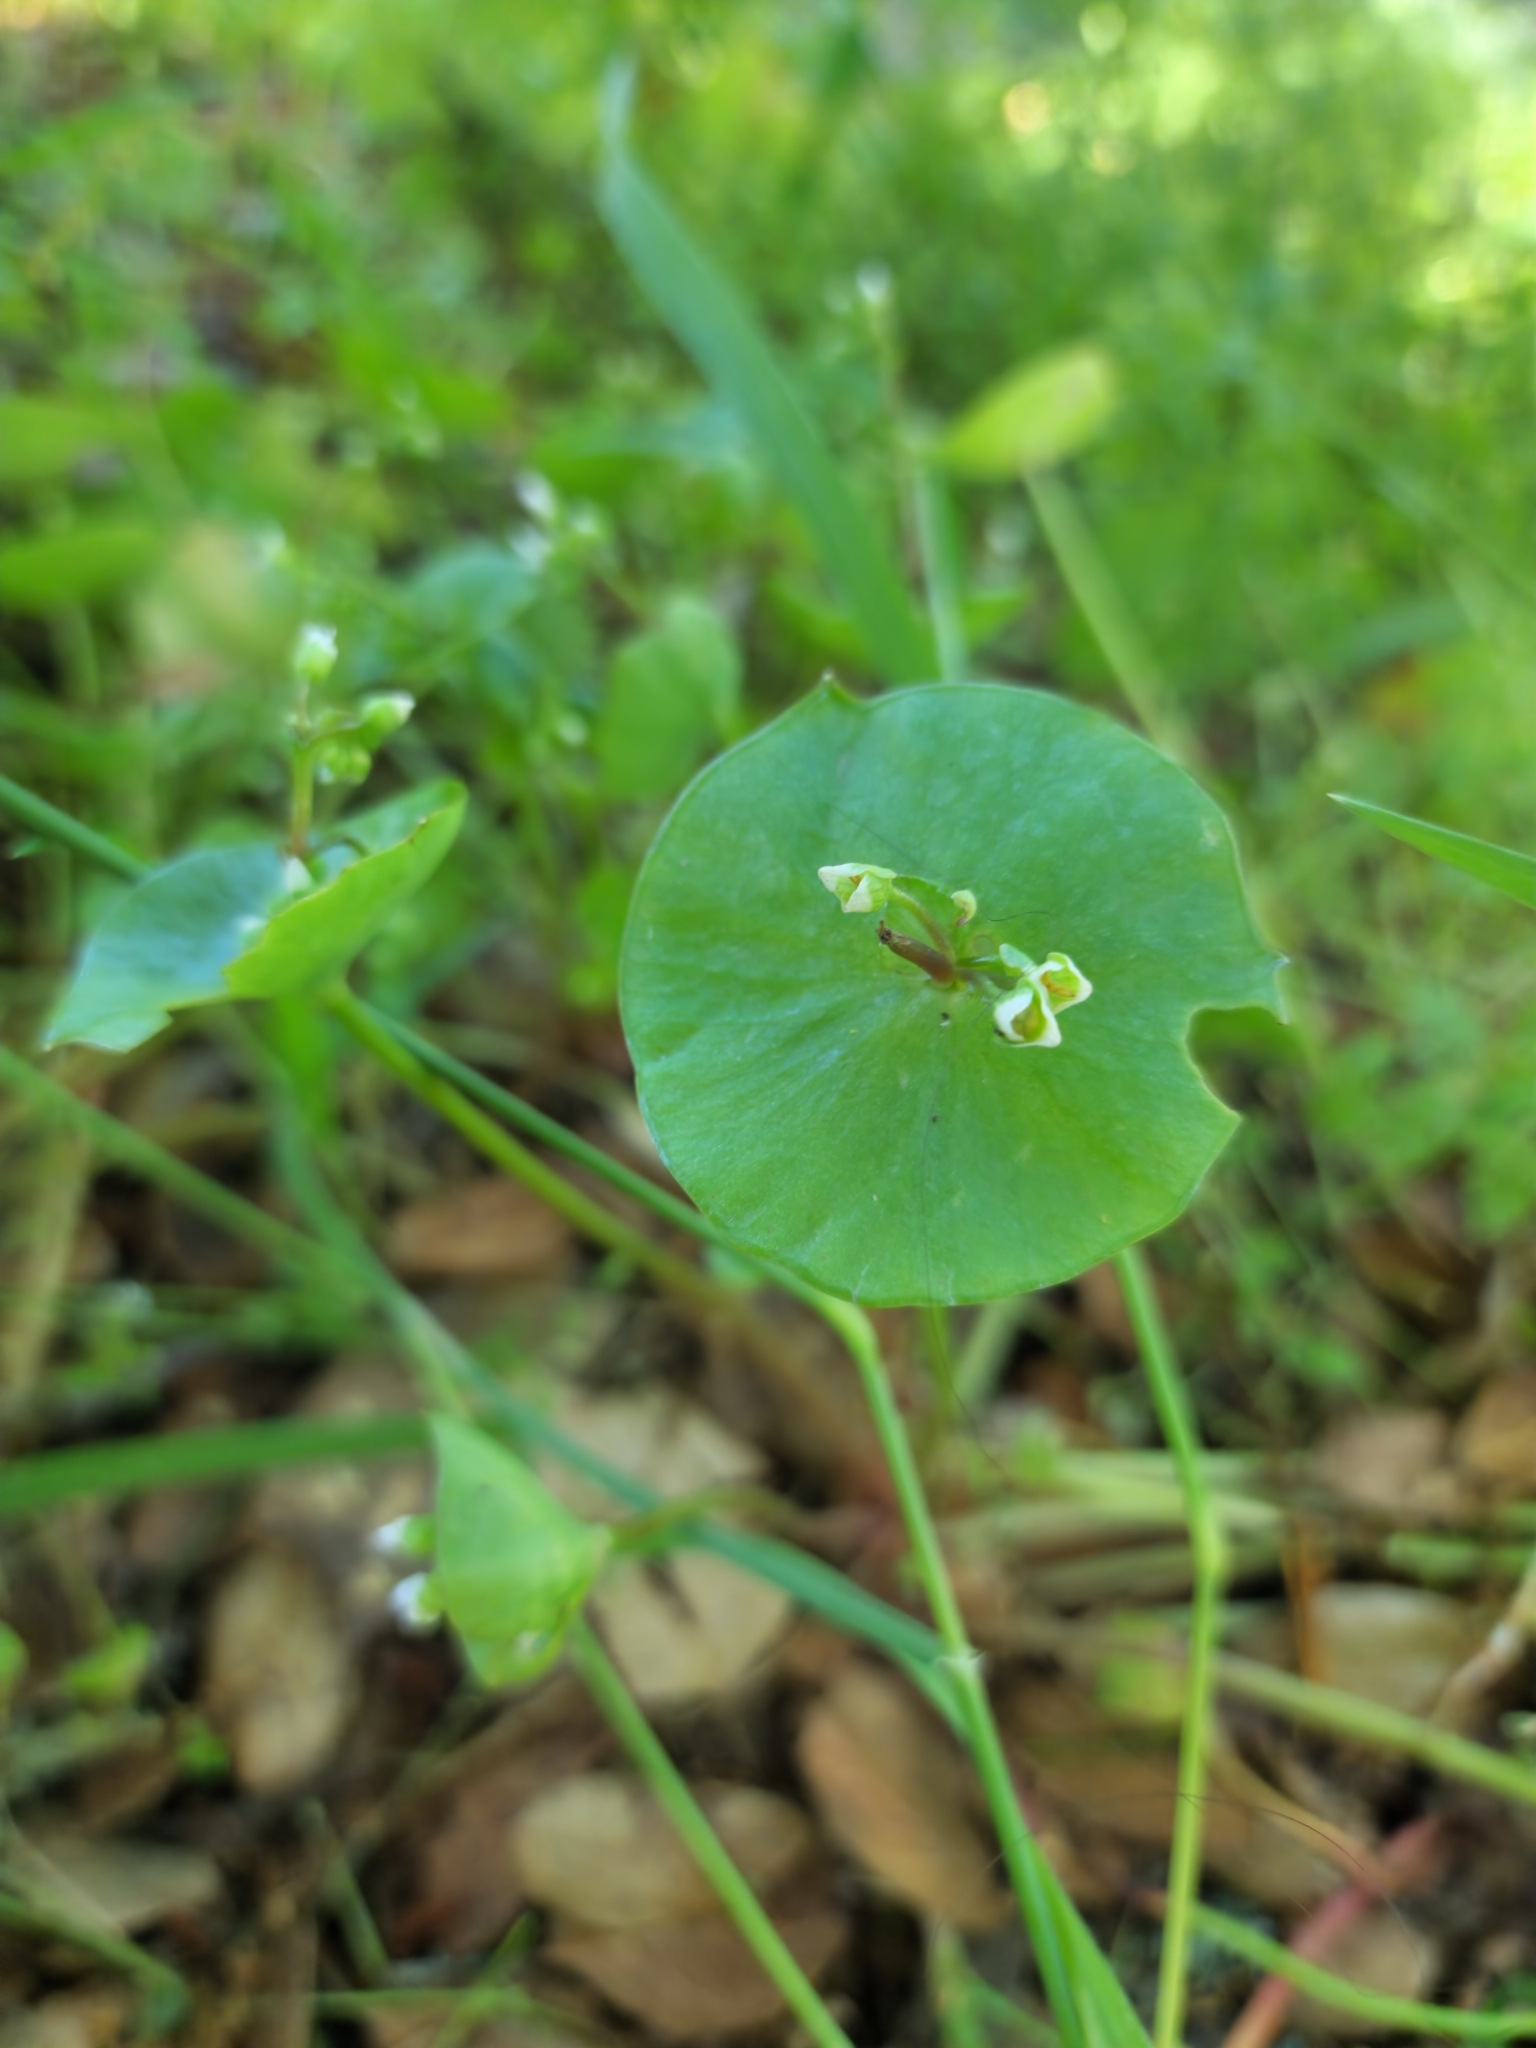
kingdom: Plantae
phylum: Tracheophyta
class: Magnoliopsida
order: Caryophyllales
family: Montiaceae
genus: Claytonia
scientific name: Claytonia perfoliata
